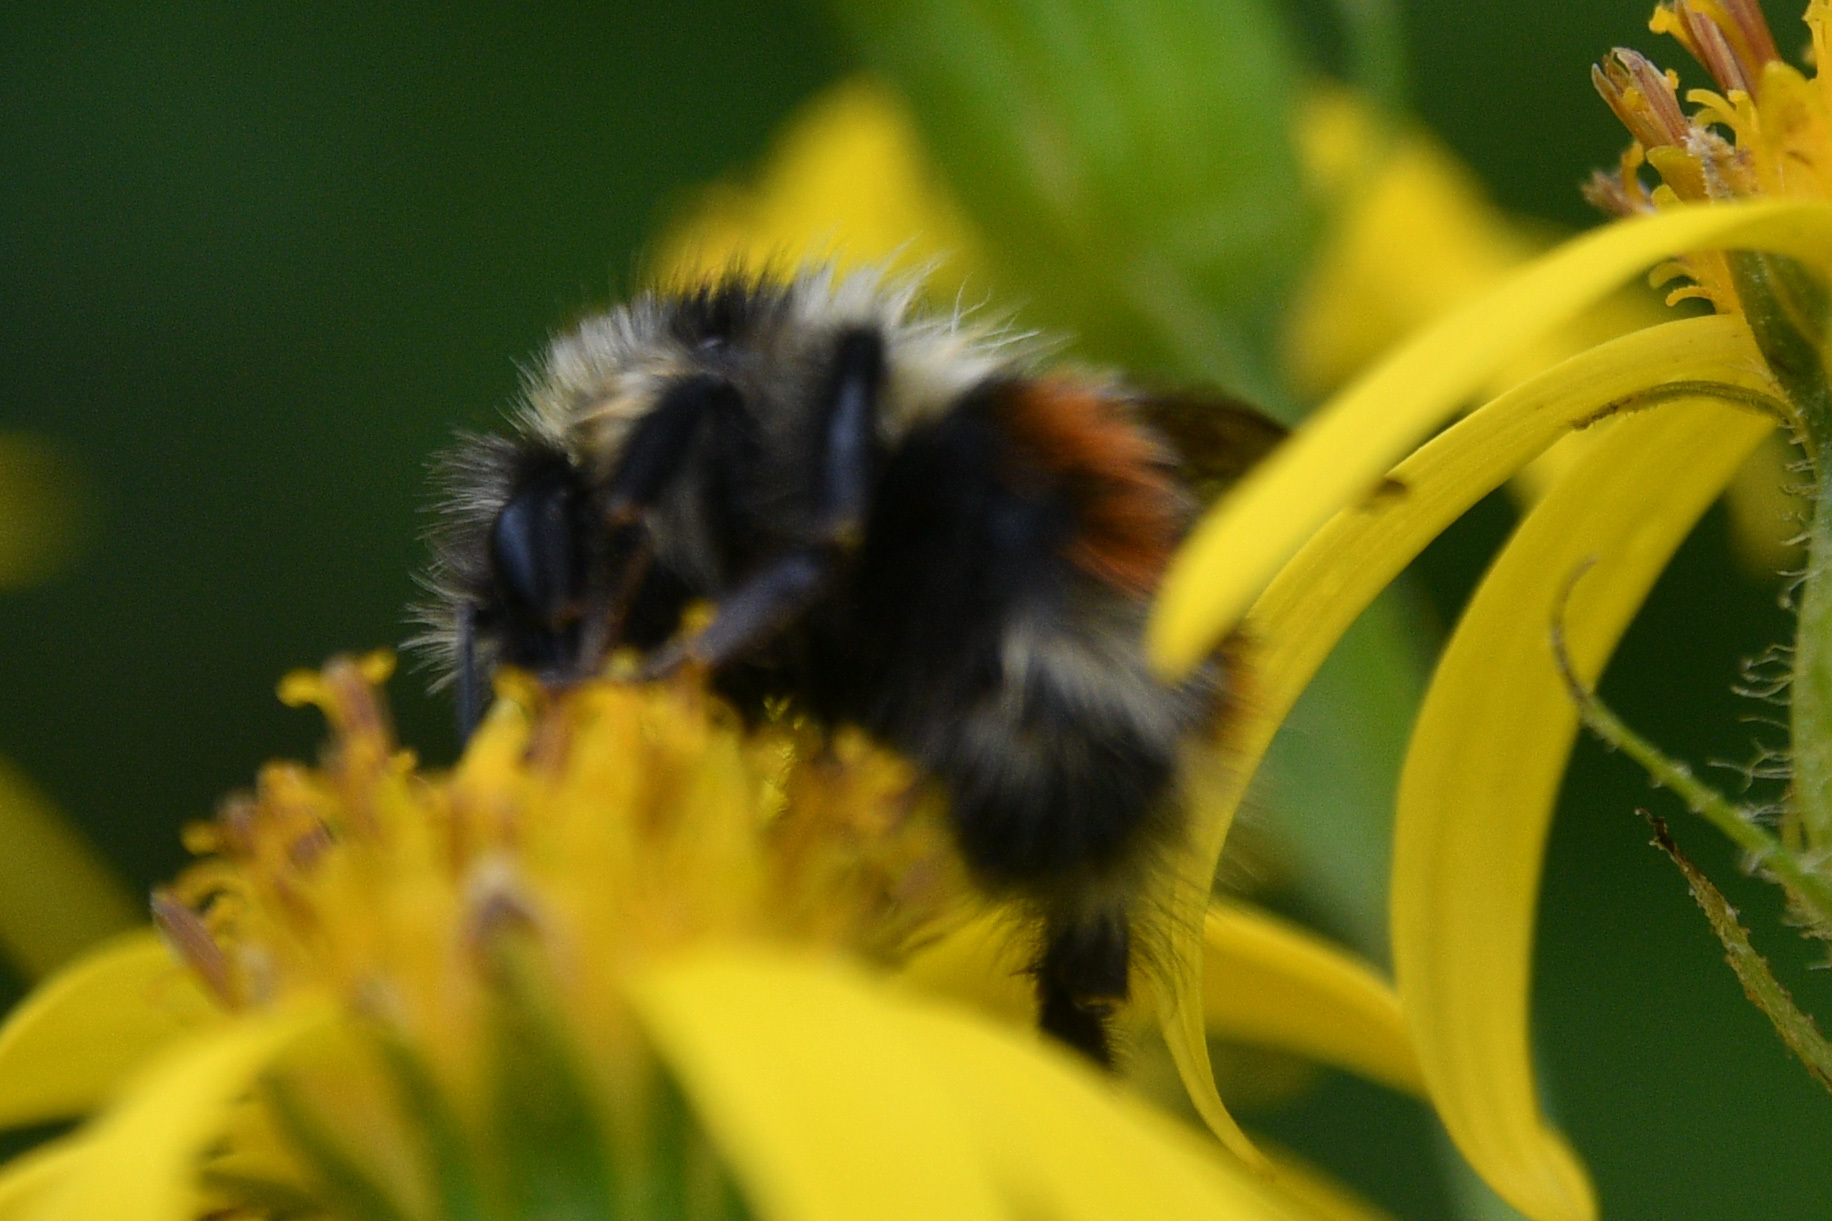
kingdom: Animalia
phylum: Arthropoda
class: Insecta
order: Hymenoptera
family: Apidae
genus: Bombus
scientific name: Bombus sylvicola
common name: Forest bumble bee
